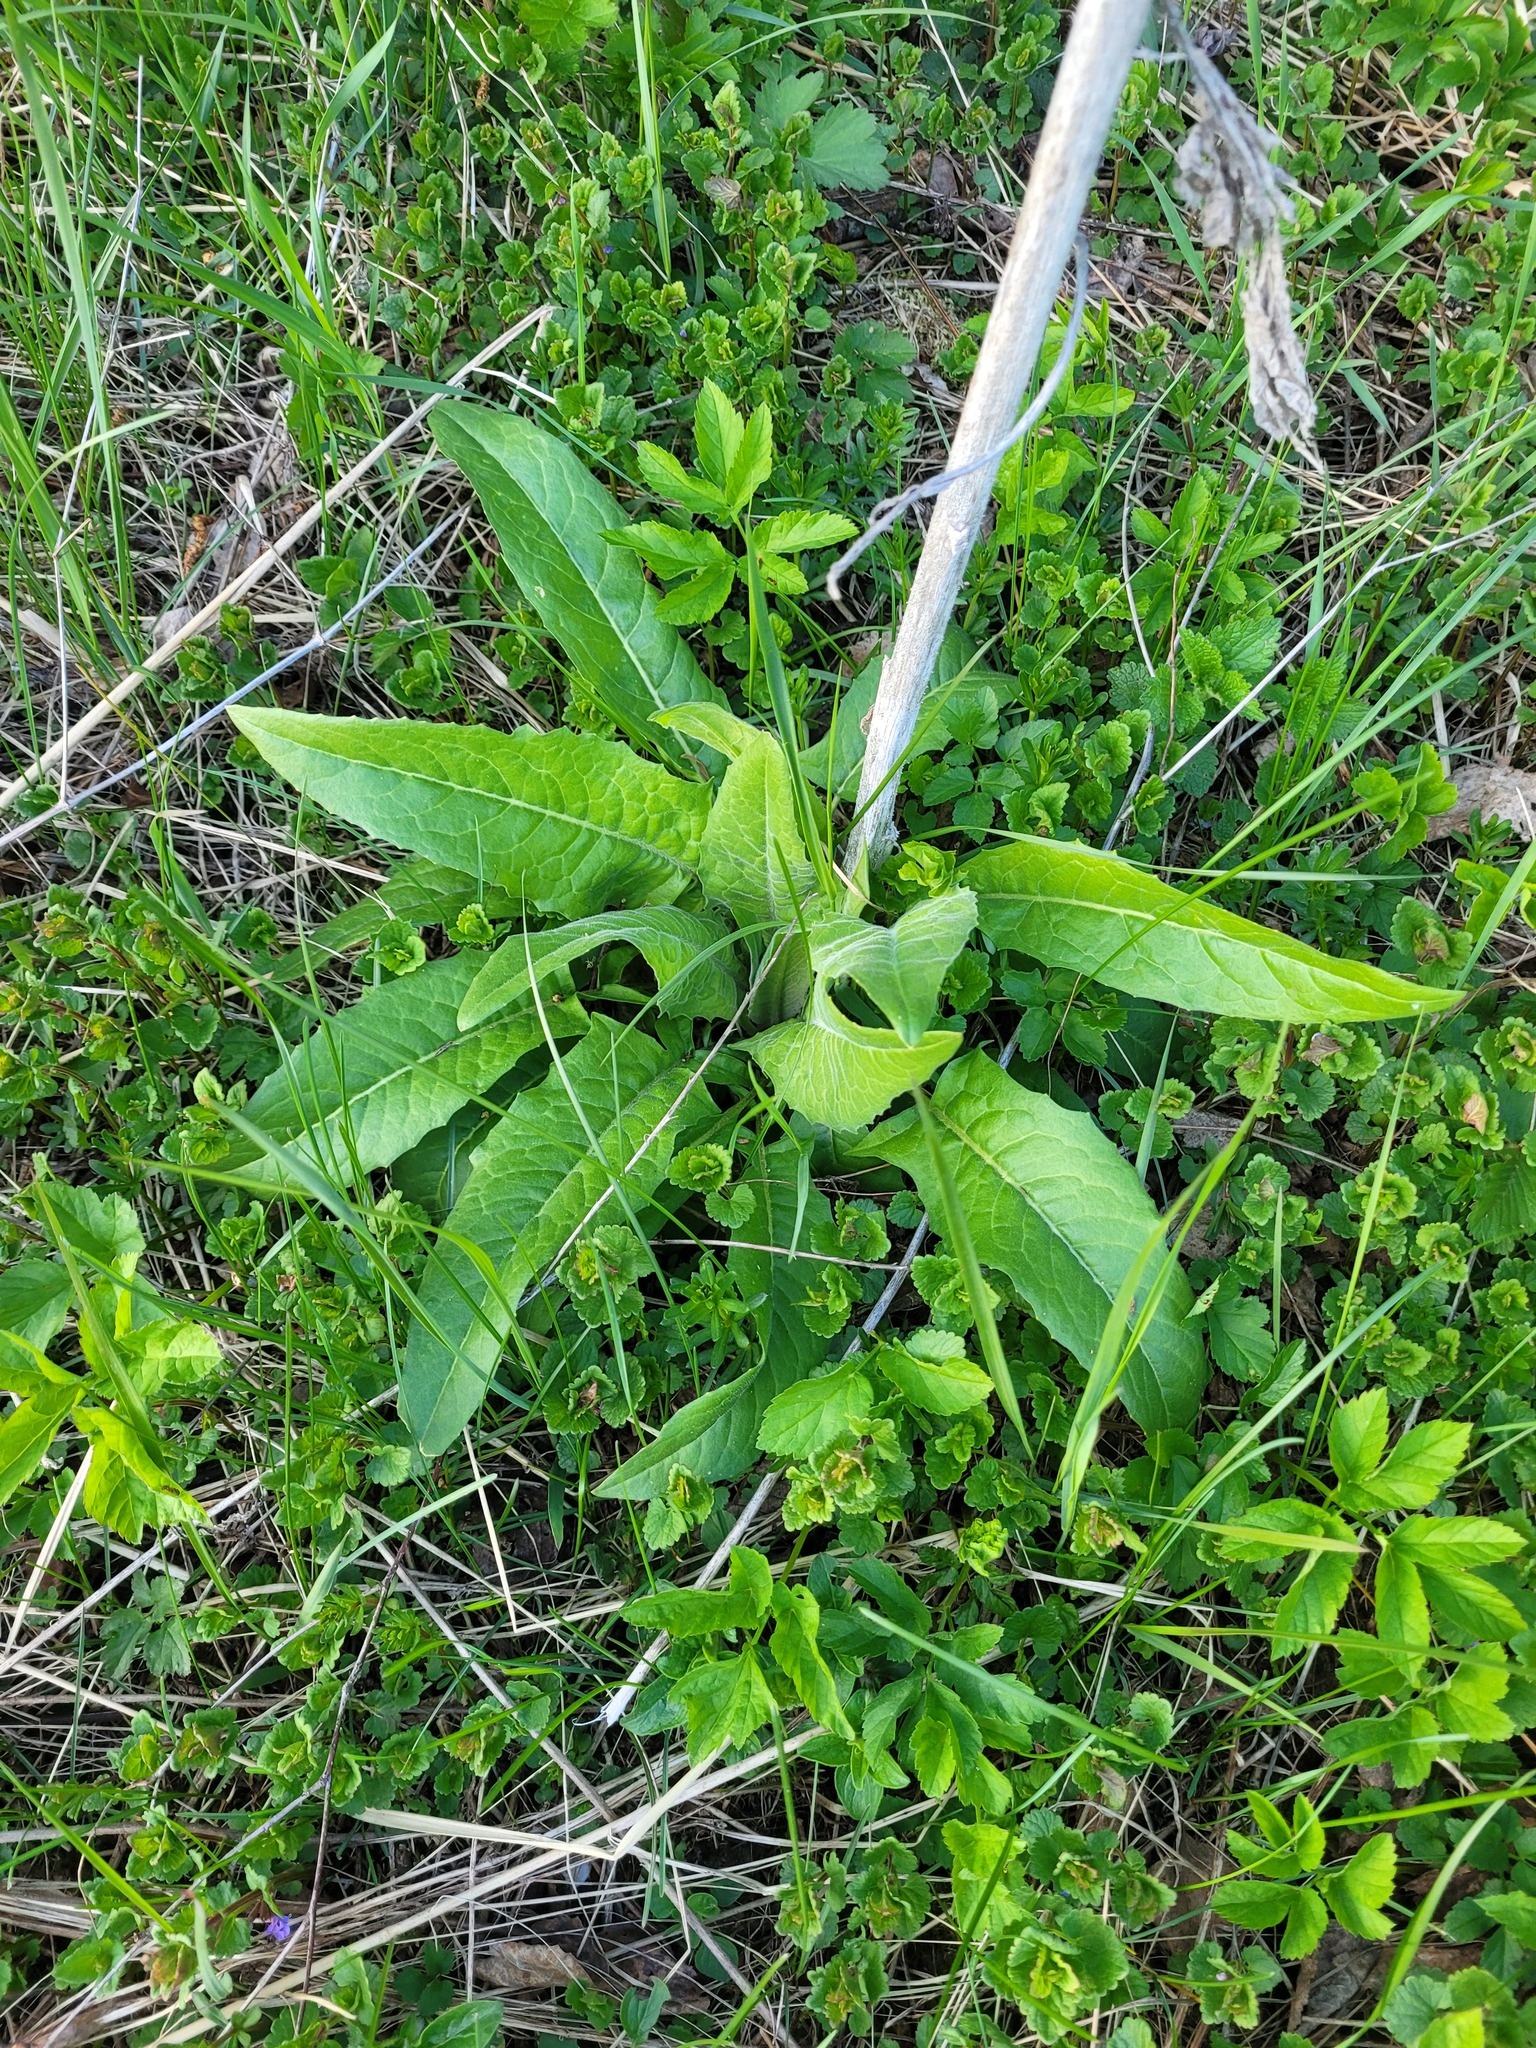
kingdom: Plantae
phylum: Tracheophyta
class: Magnoliopsida
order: Brassicales
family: Brassicaceae
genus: Bunias
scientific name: Bunias orientalis
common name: Warty-cabbage
